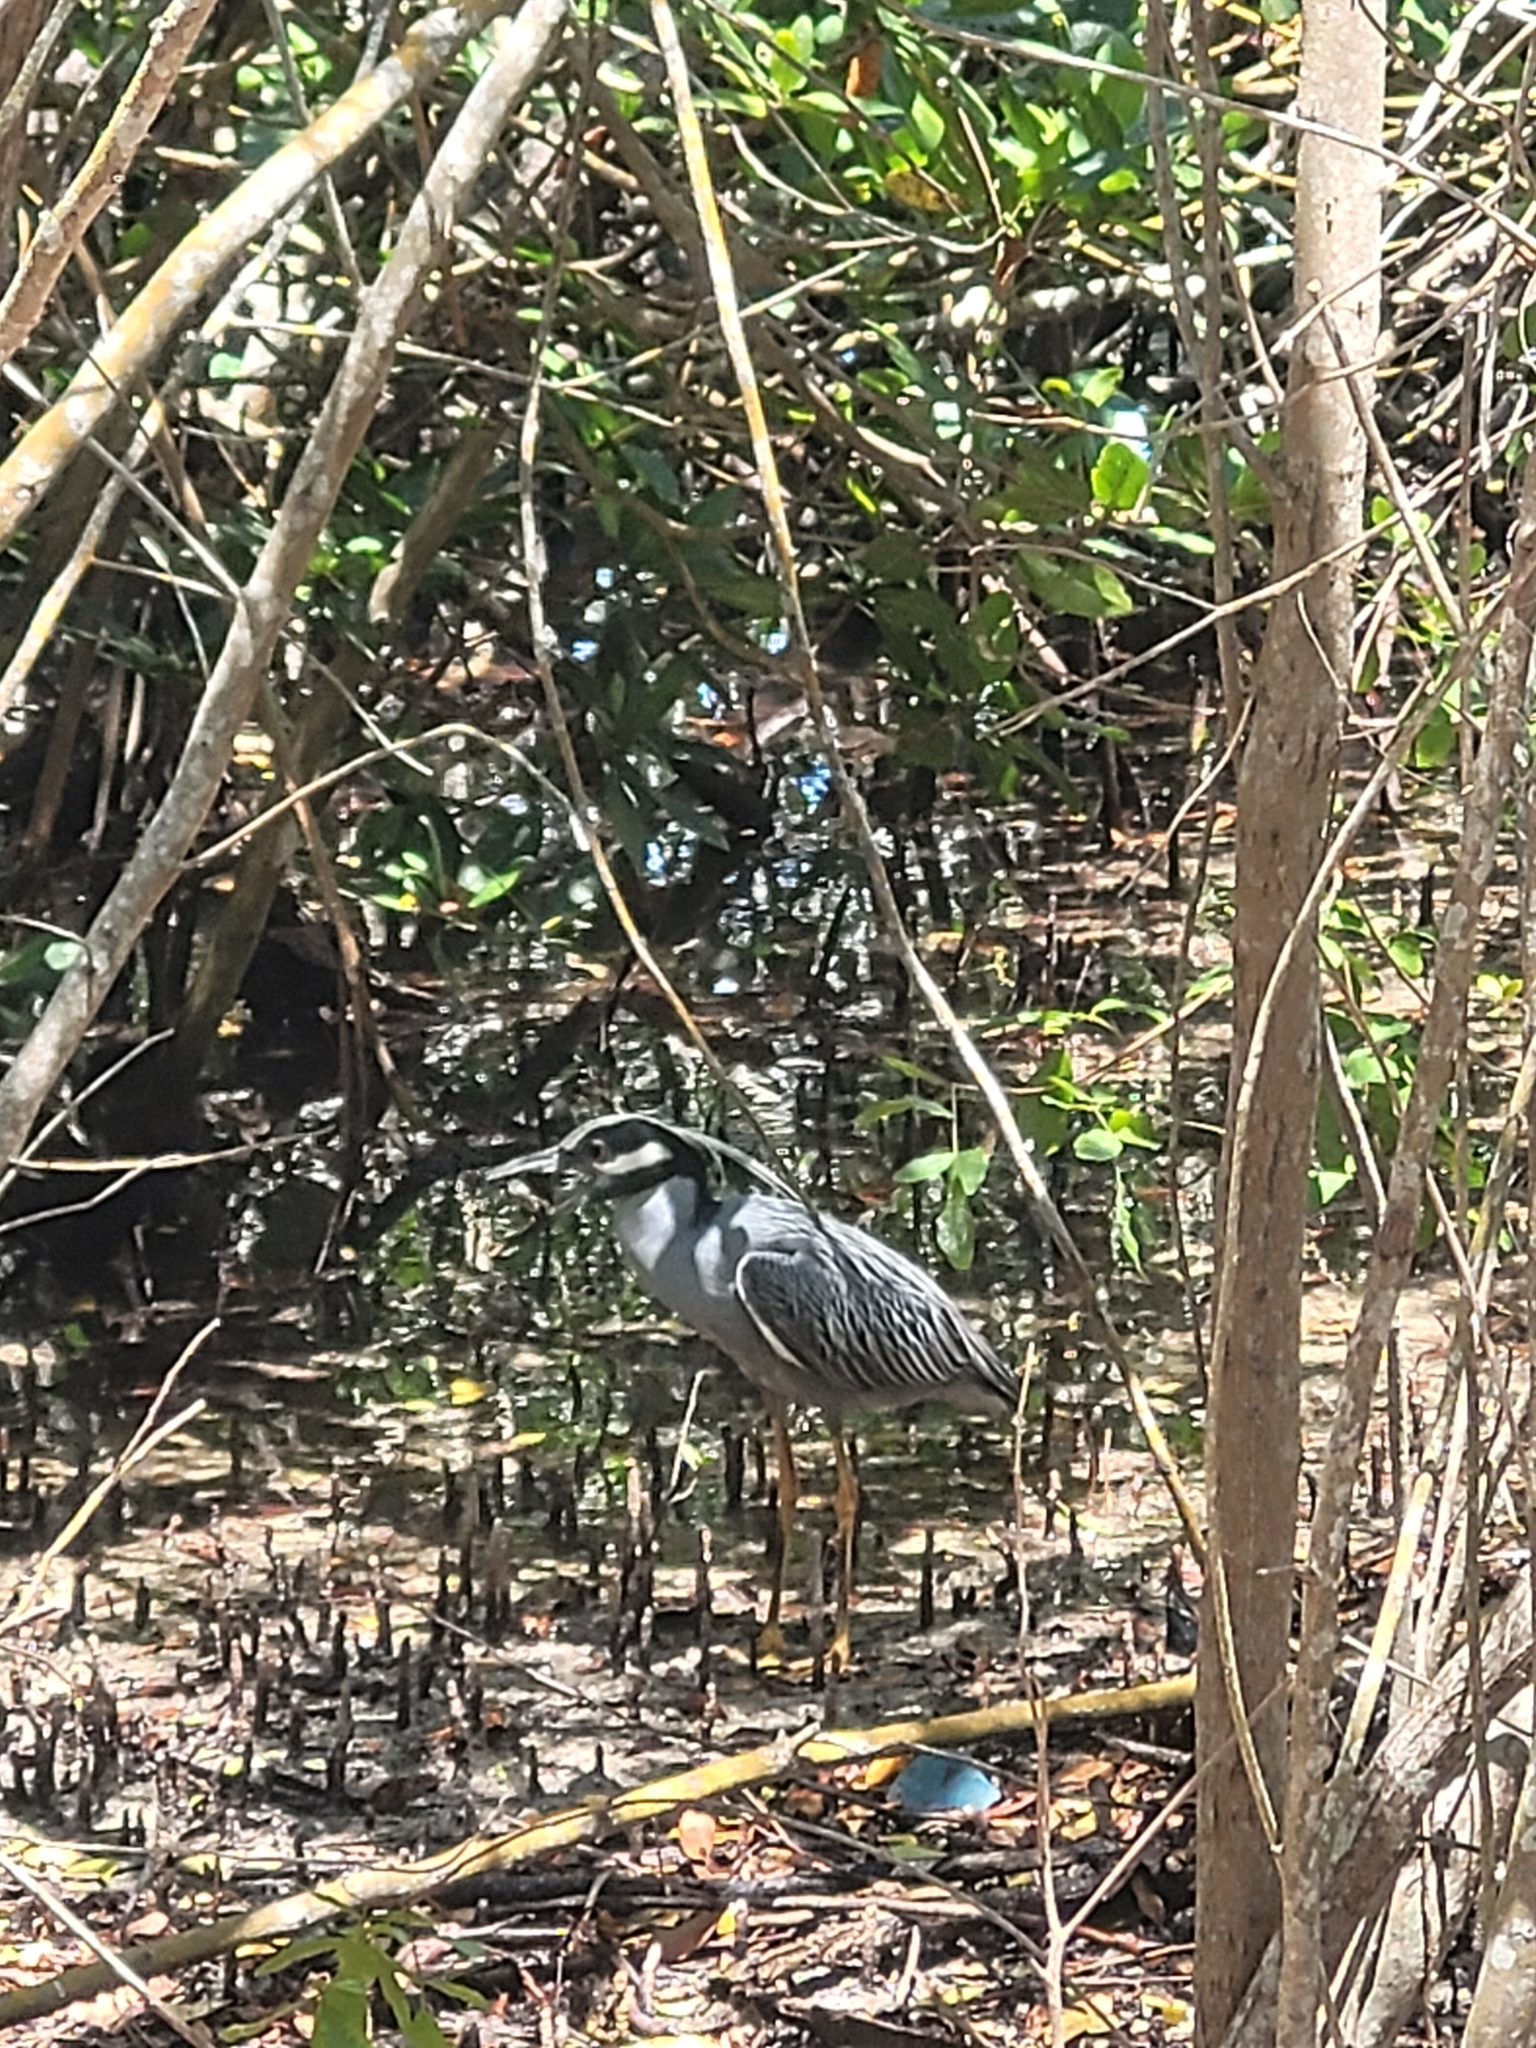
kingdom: Animalia
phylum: Chordata
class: Aves
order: Pelecaniformes
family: Ardeidae
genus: Nyctanassa
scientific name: Nyctanassa violacea
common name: Yellow-crowned night heron
